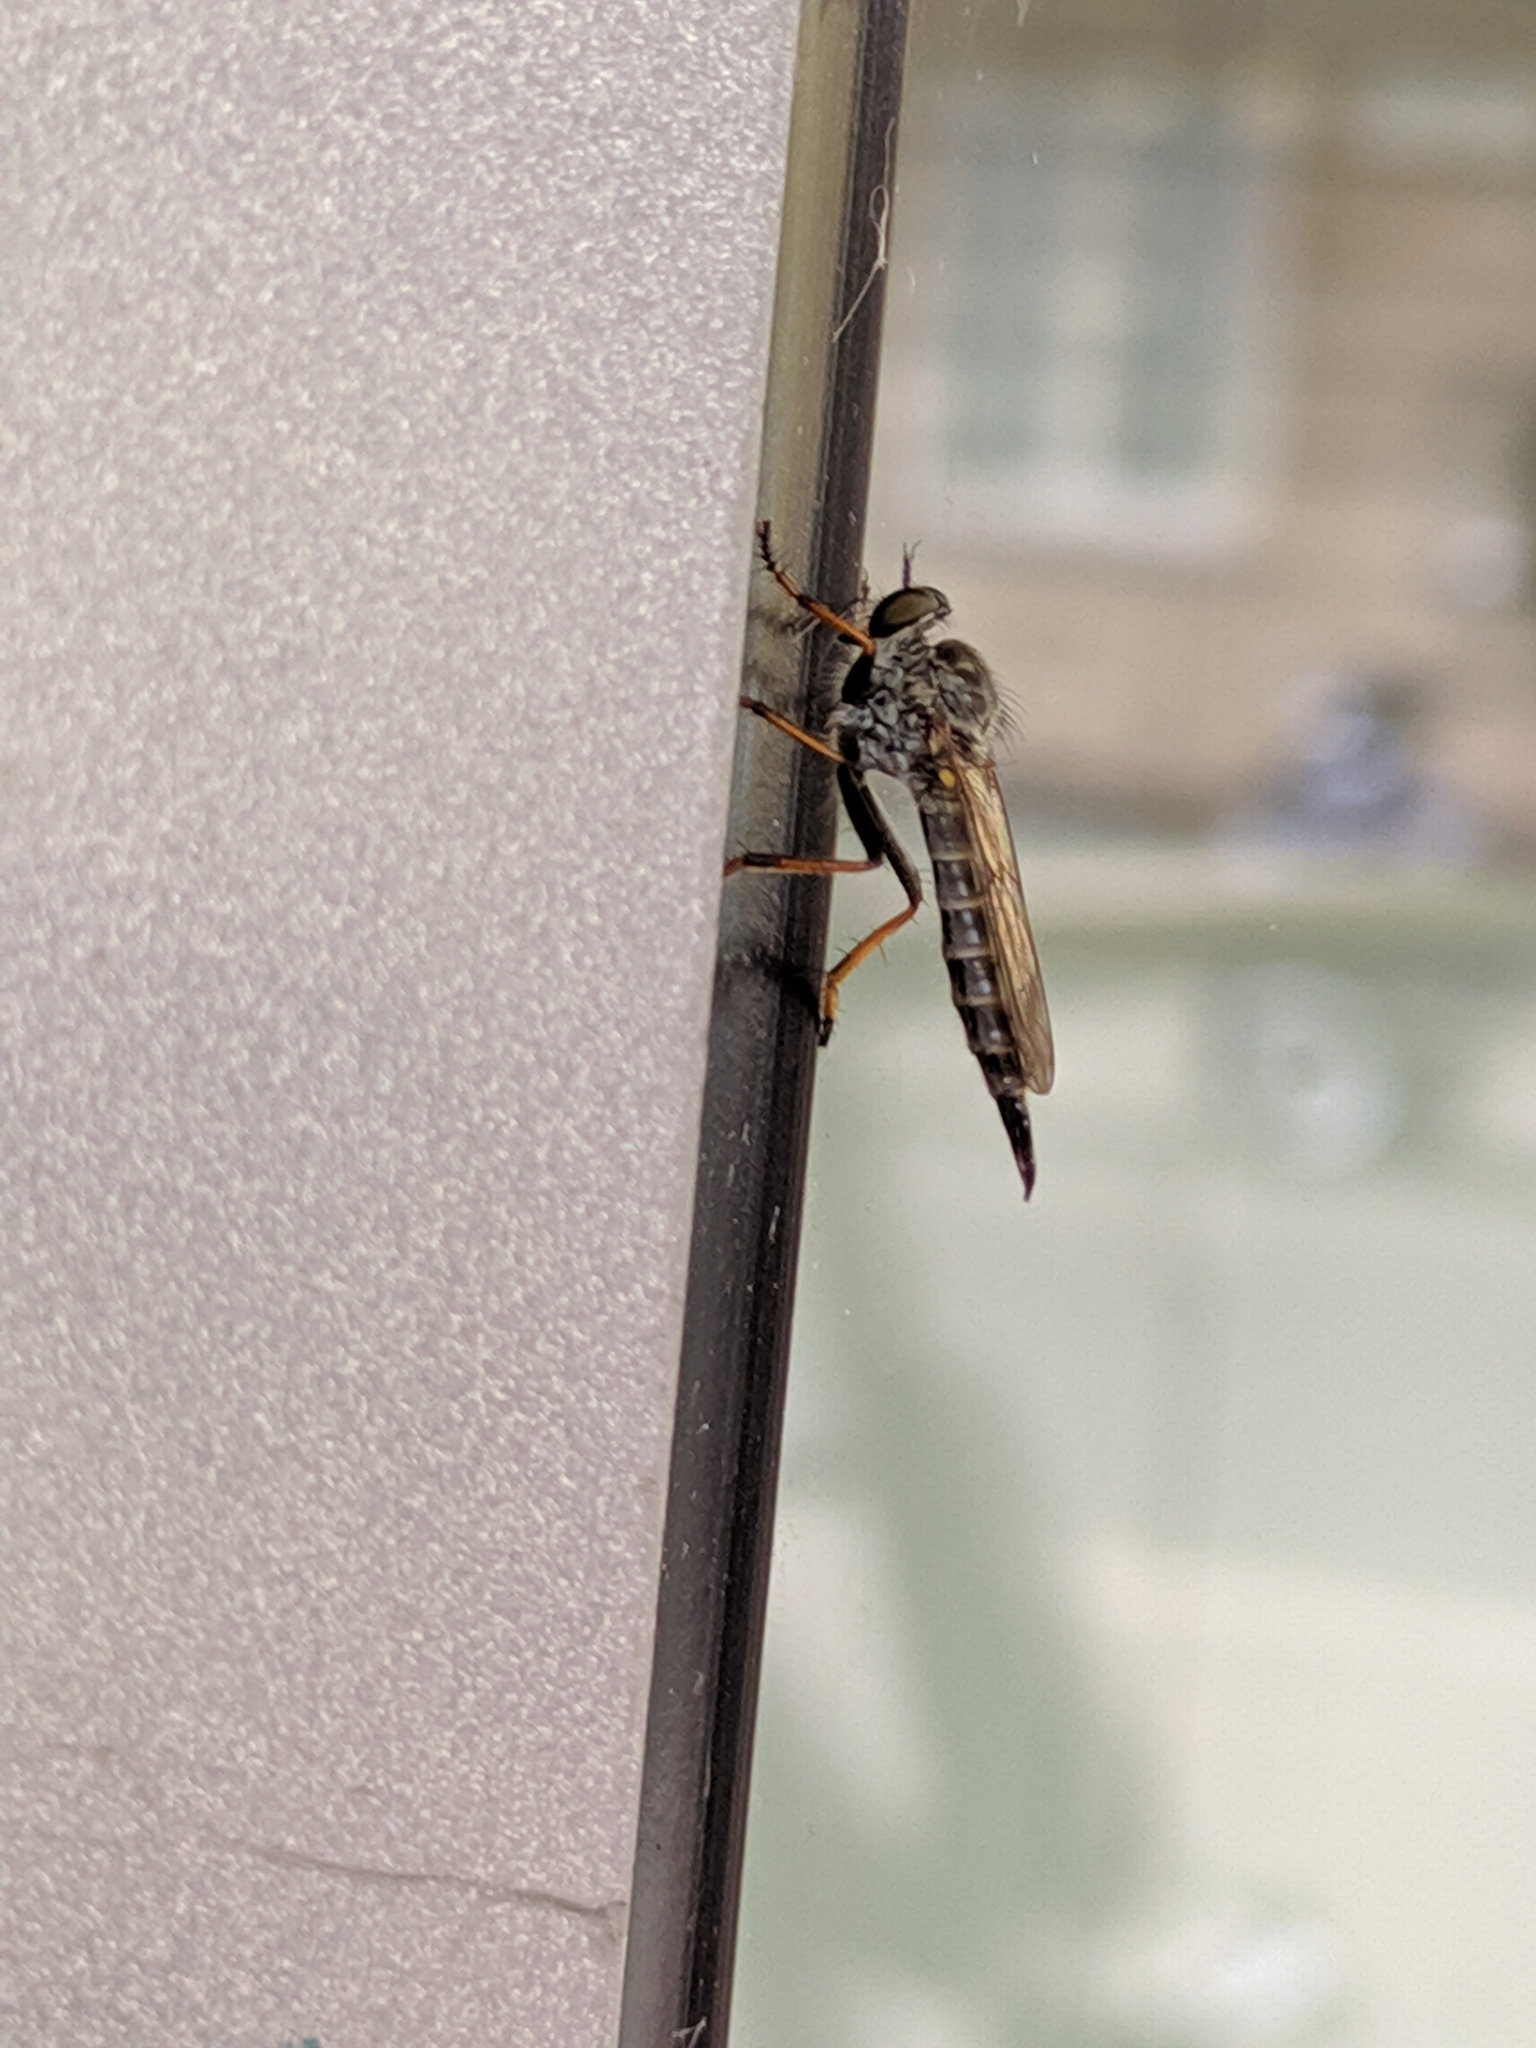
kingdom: Animalia
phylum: Arthropoda
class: Insecta
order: Diptera
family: Asilidae
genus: Paritamus
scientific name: Paritamus geniculatus
